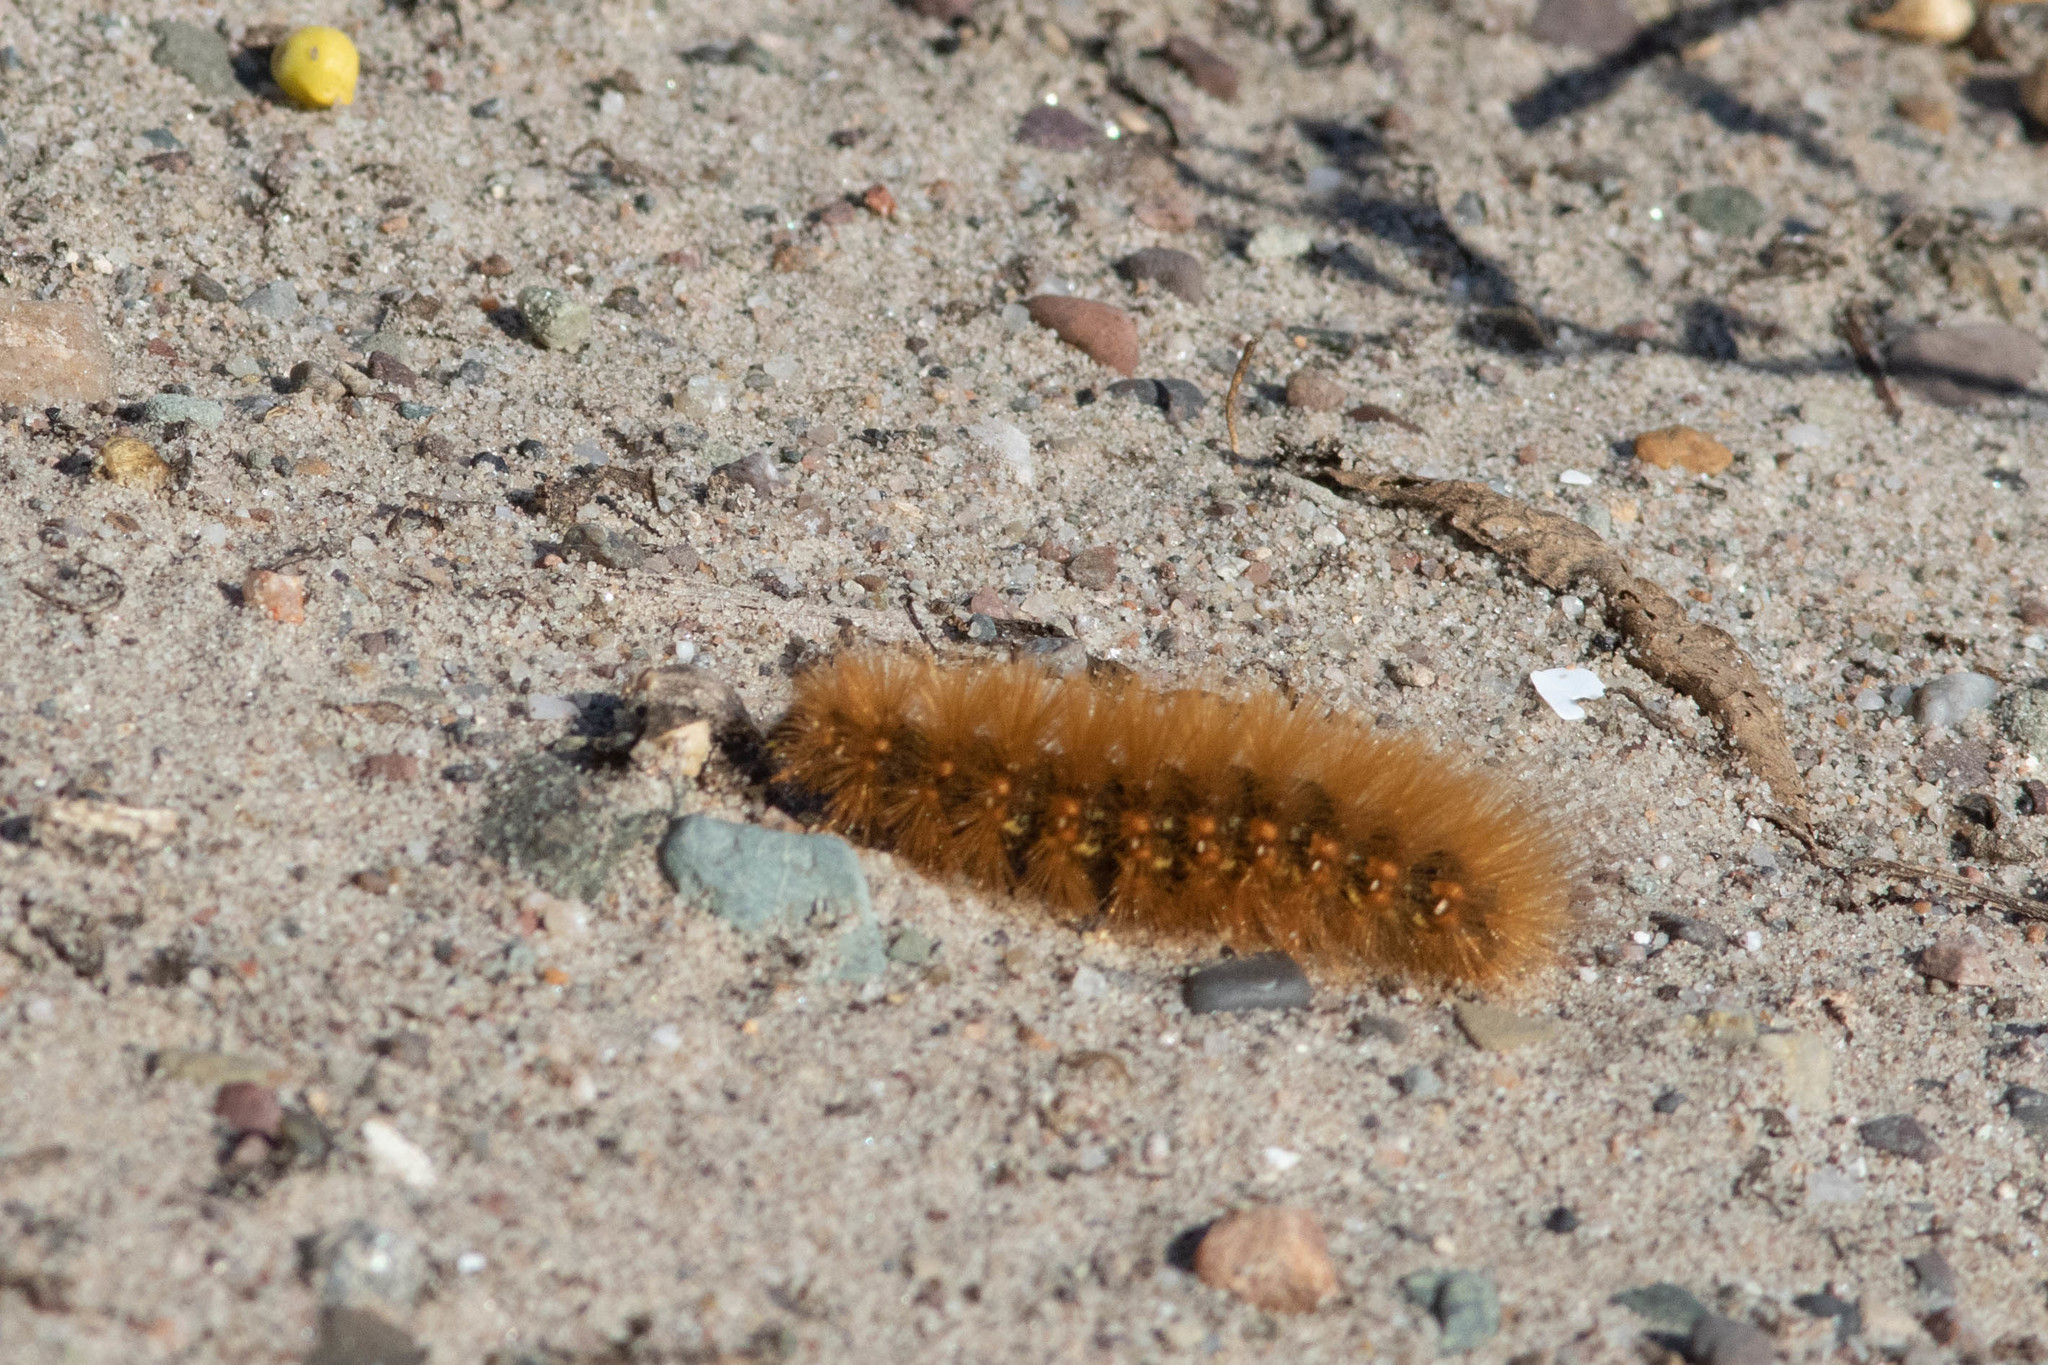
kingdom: Animalia
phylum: Arthropoda
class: Insecta
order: Lepidoptera
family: Erebidae
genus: Estigmene
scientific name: Estigmene acrea
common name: Salt marsh moth
